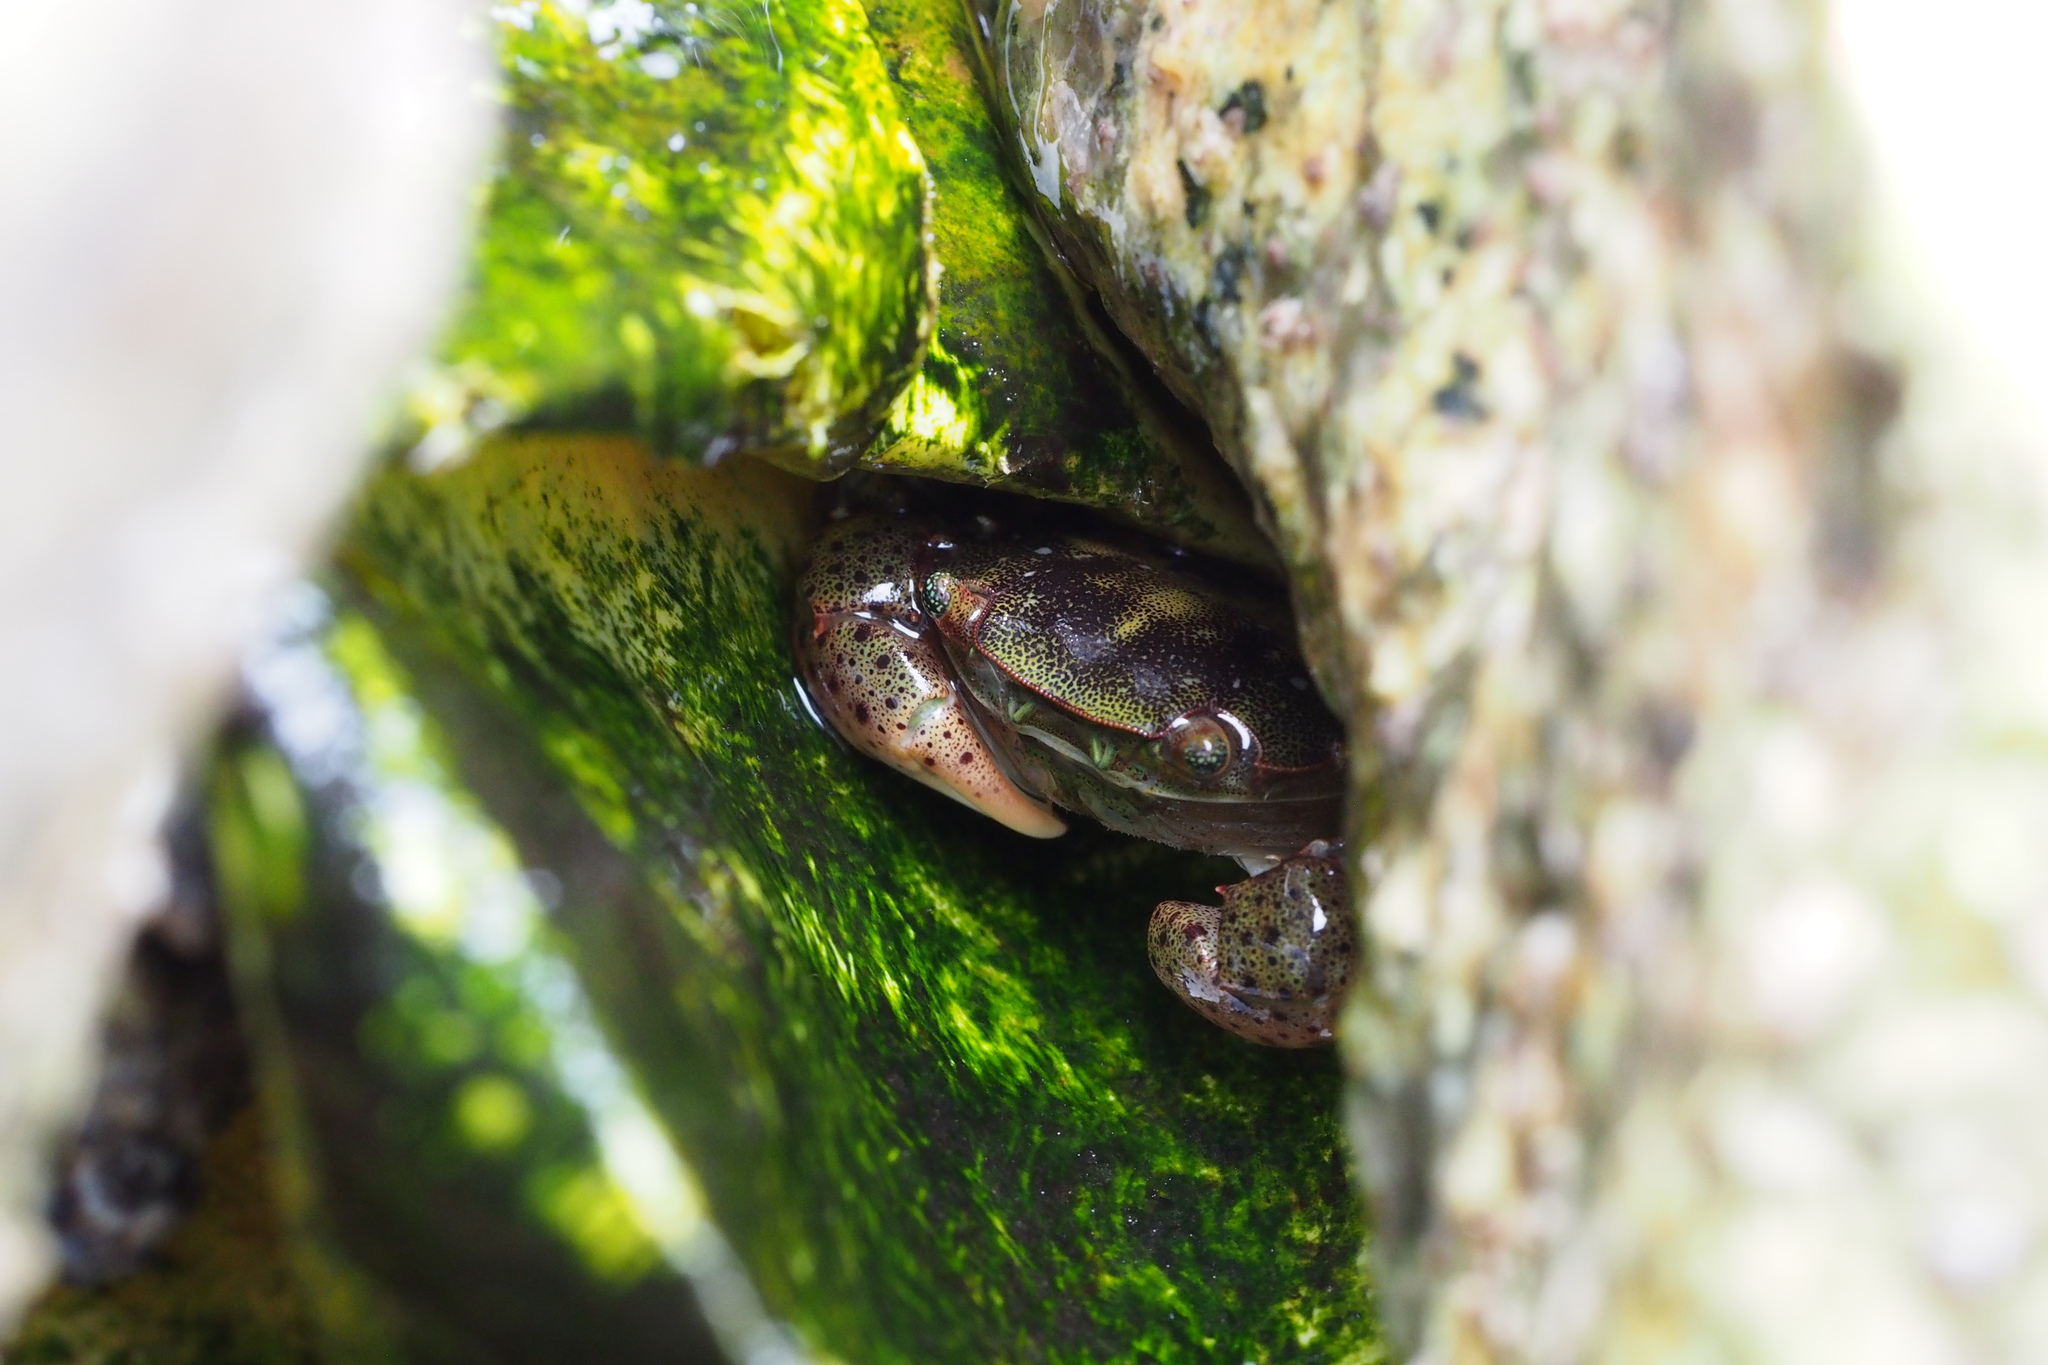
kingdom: Animalia
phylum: Arthropoda
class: Malacostraca
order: Decapoda
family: Varunidae
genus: Hemigrapsus
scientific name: Hemigrapsus sanguineus
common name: Asian shore crab
